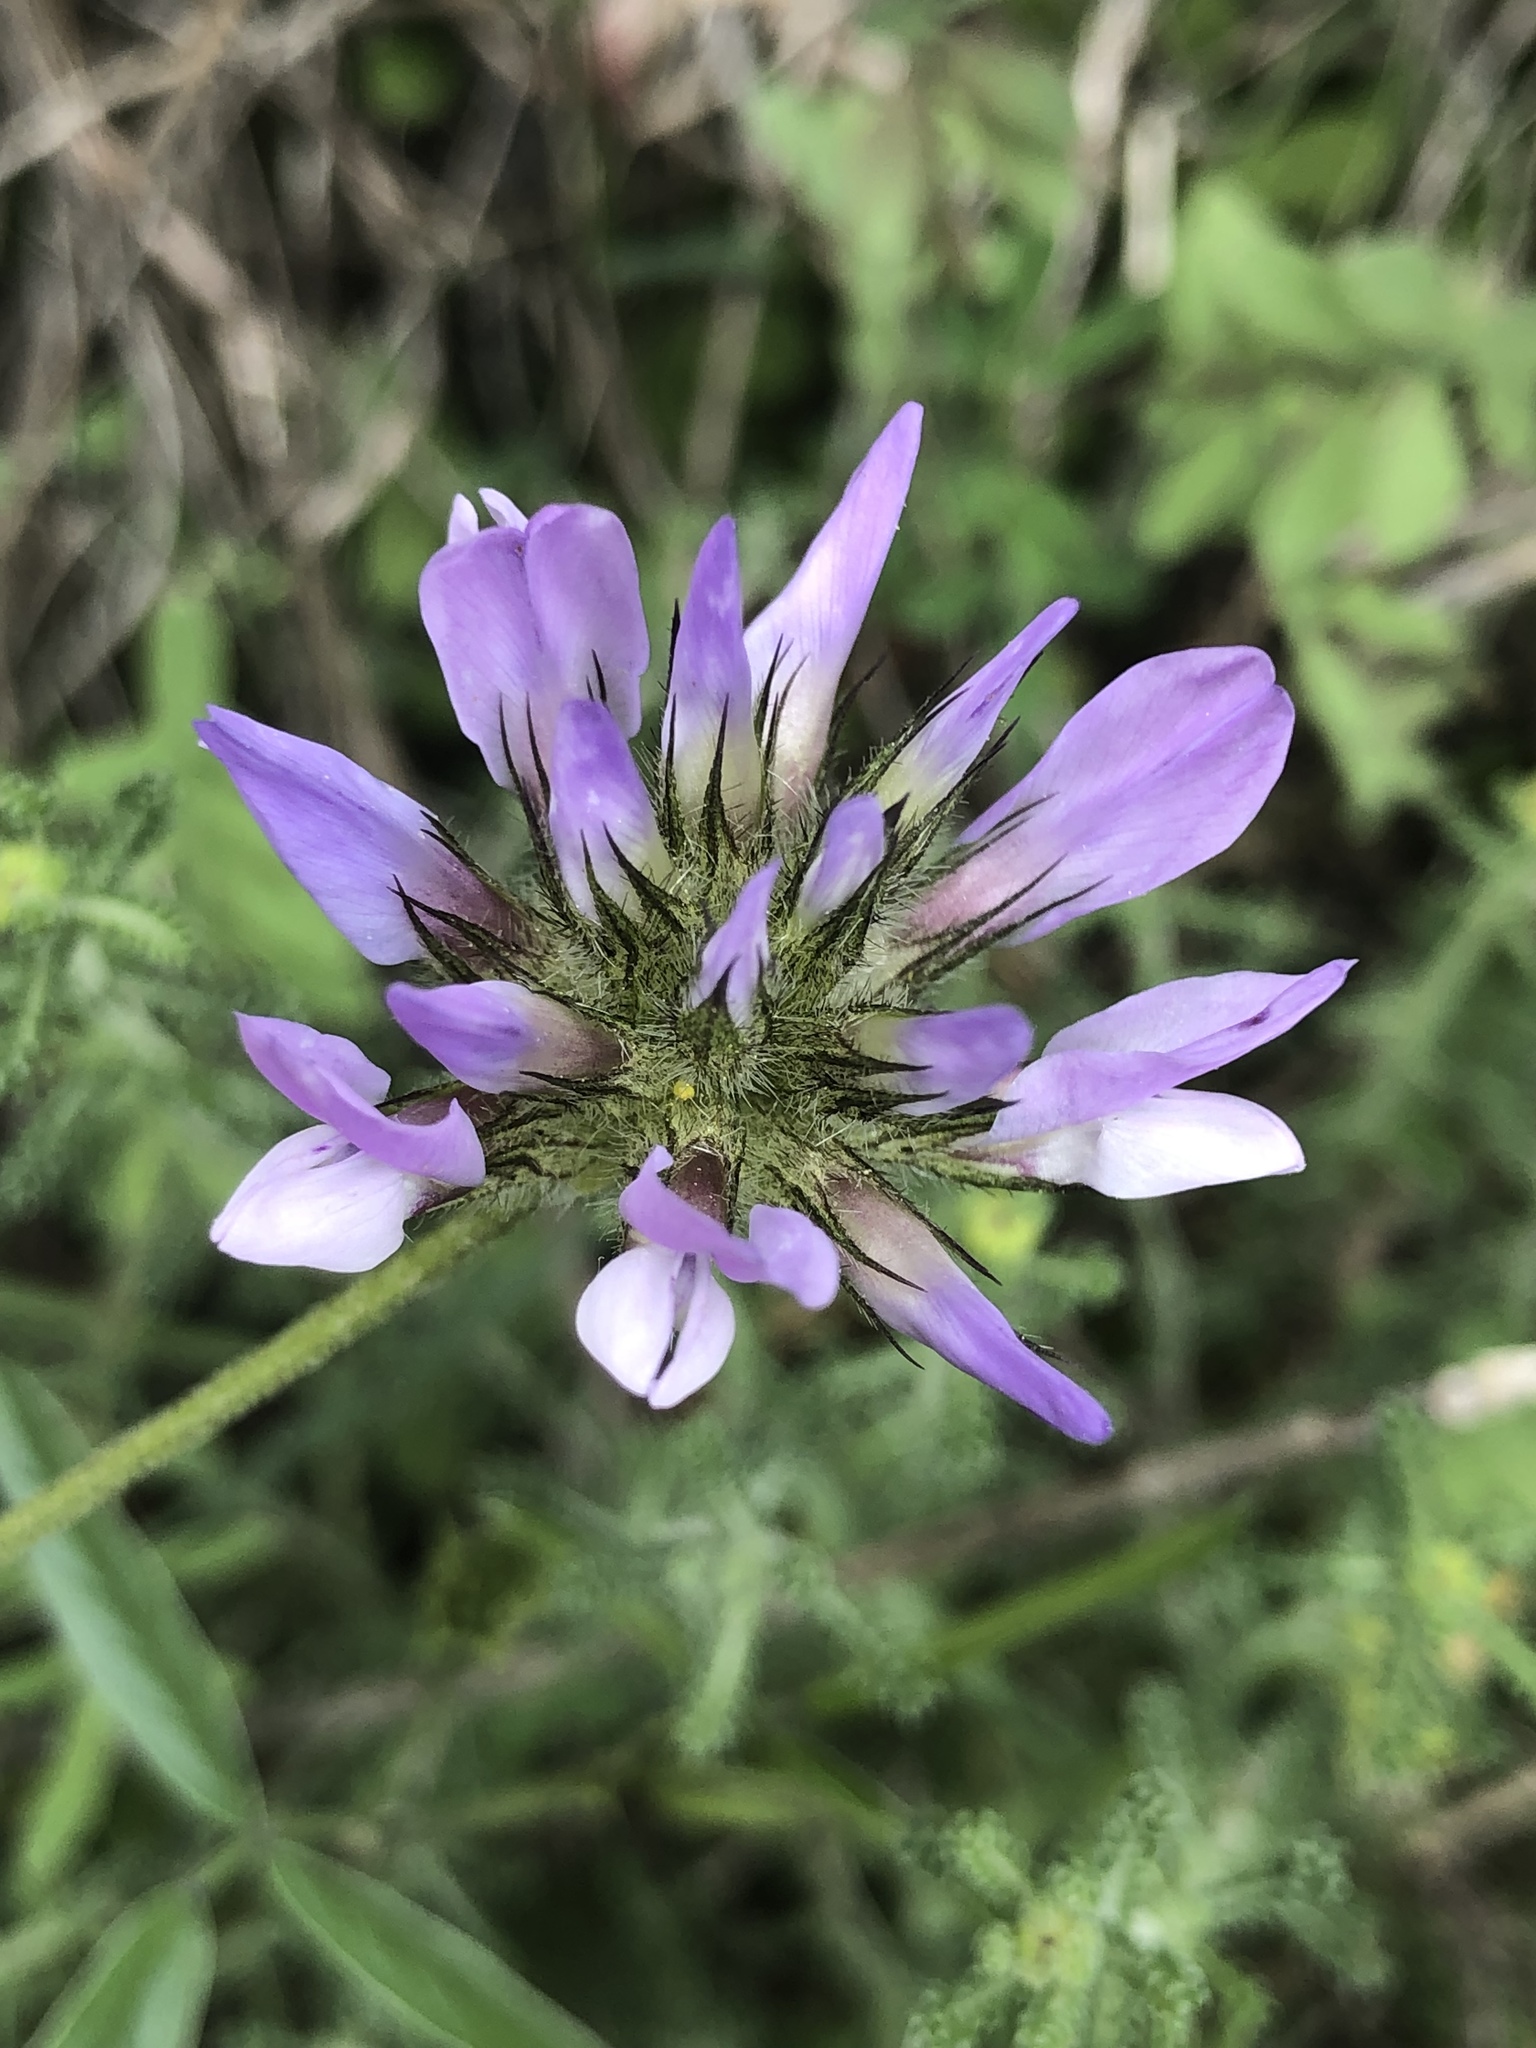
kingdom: Plantae
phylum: Tracheophyta
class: Magnoliopsida
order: Fabales
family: Fabaceae
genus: Bituminaria
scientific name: Bituminaria bituminosa
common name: Arabian pea
